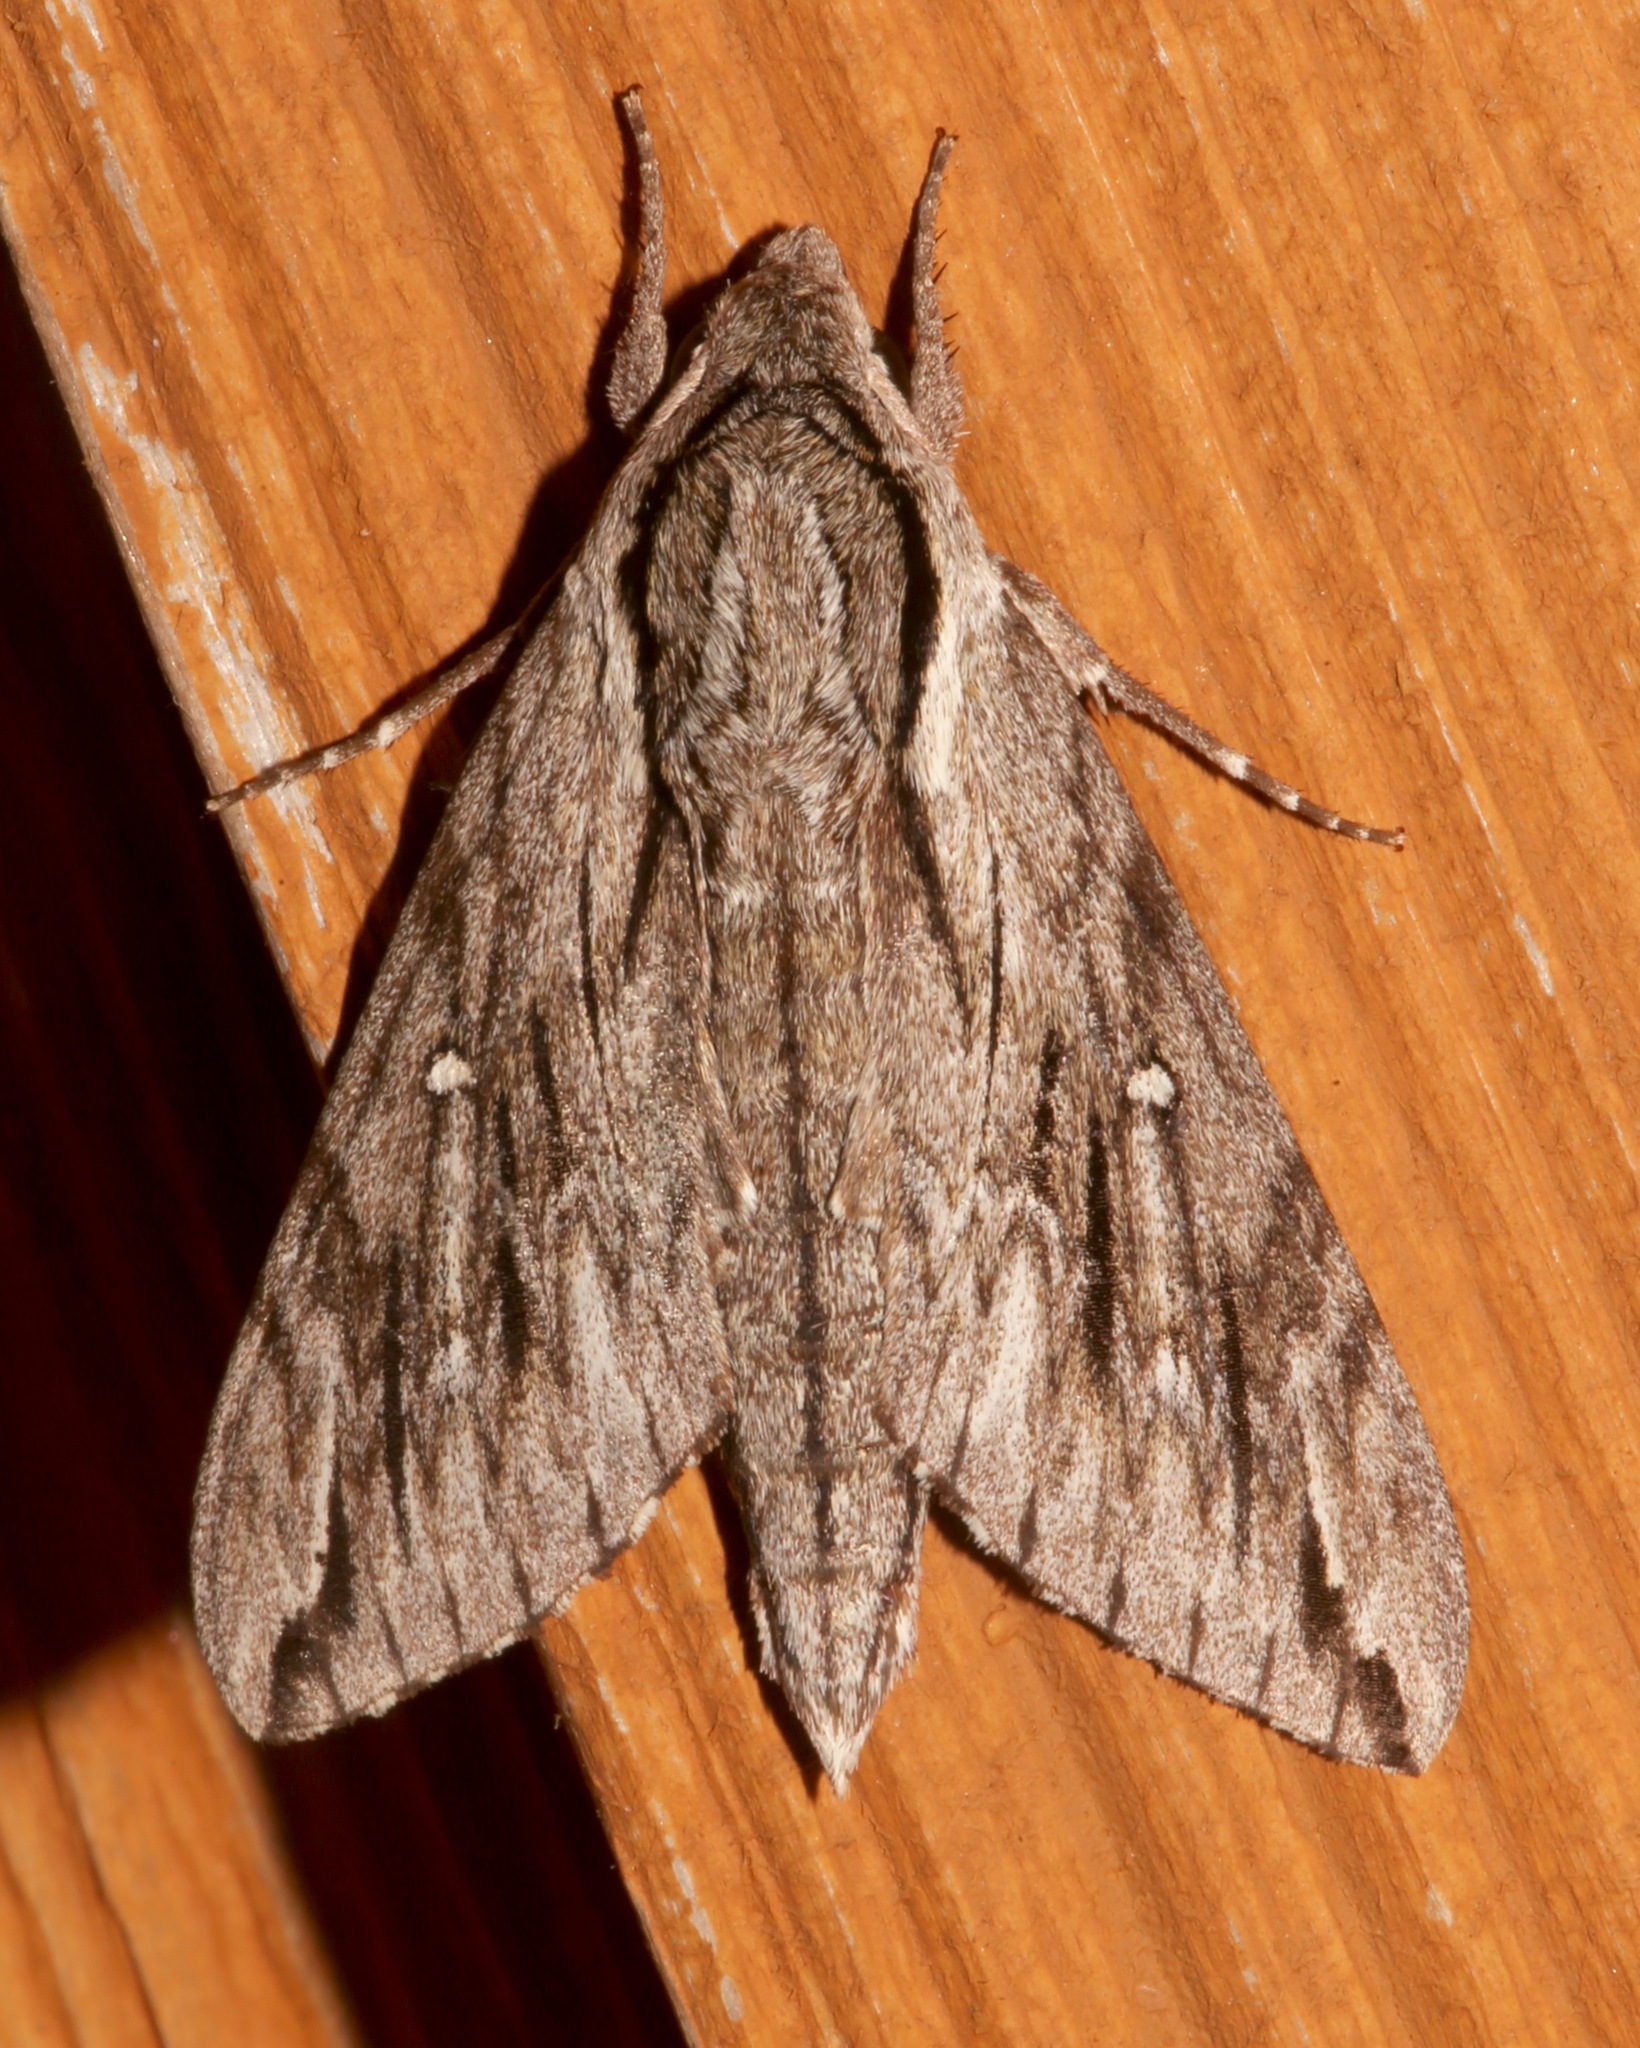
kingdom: Animalia
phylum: Arthropoda
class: Insecta
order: Lepidoptera
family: Sphingidae
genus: Paratrea
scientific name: Paratrea plebeja
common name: Plebian sphinx
